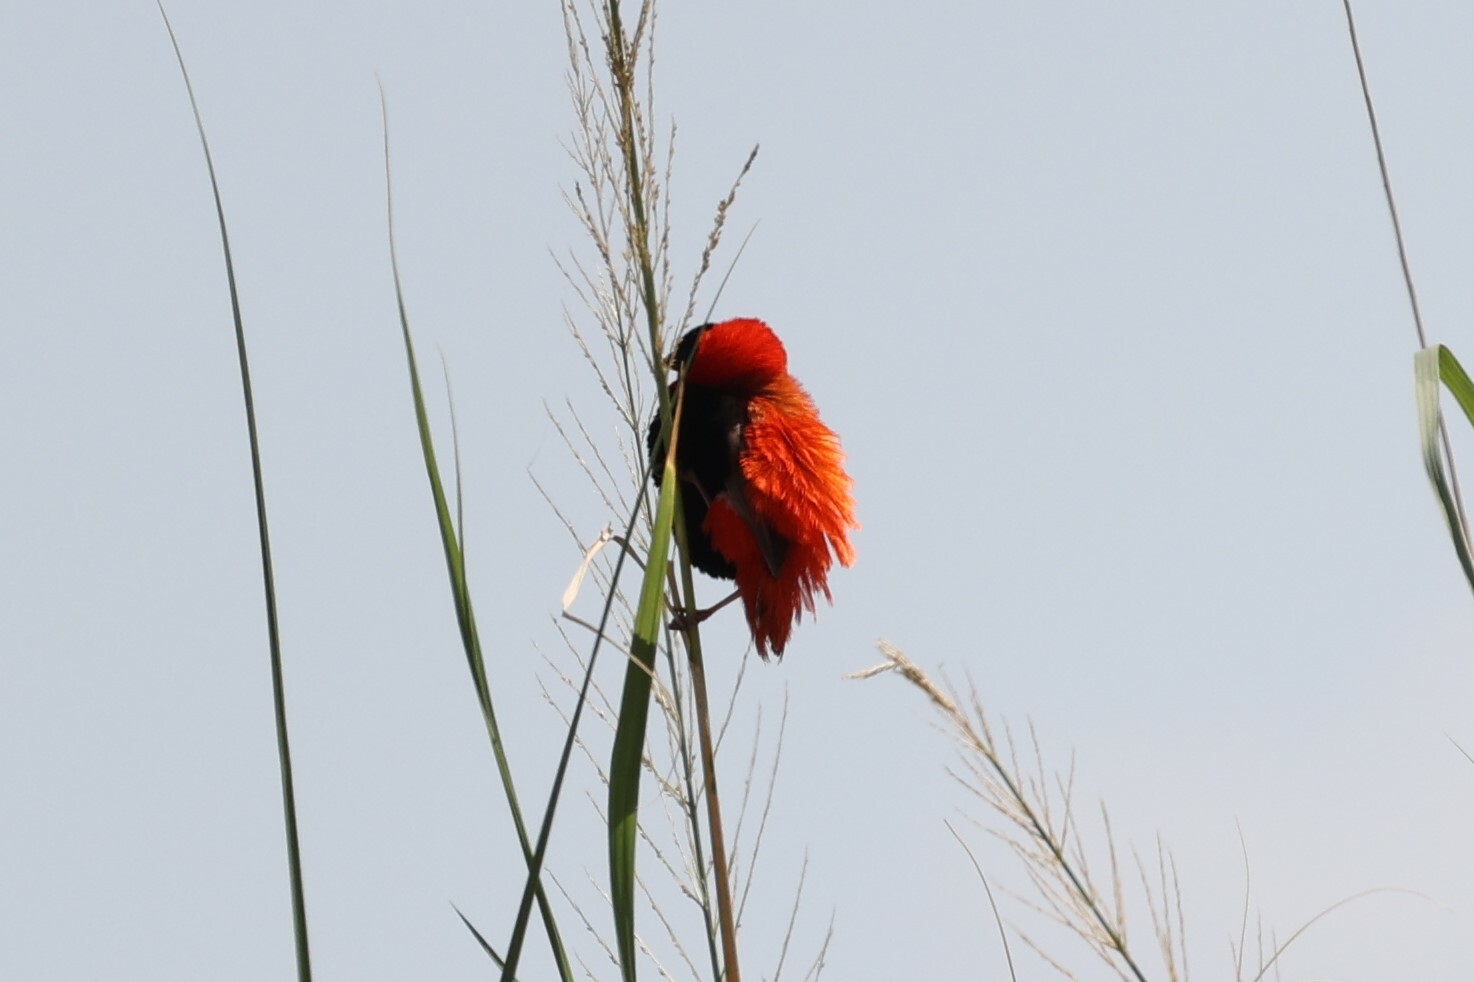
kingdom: Animalia
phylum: Chordata
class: Aves
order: Passeriformes
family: Ploceidae
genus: Euplectes
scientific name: Euplectes franciscanus
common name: Northern red bishop
